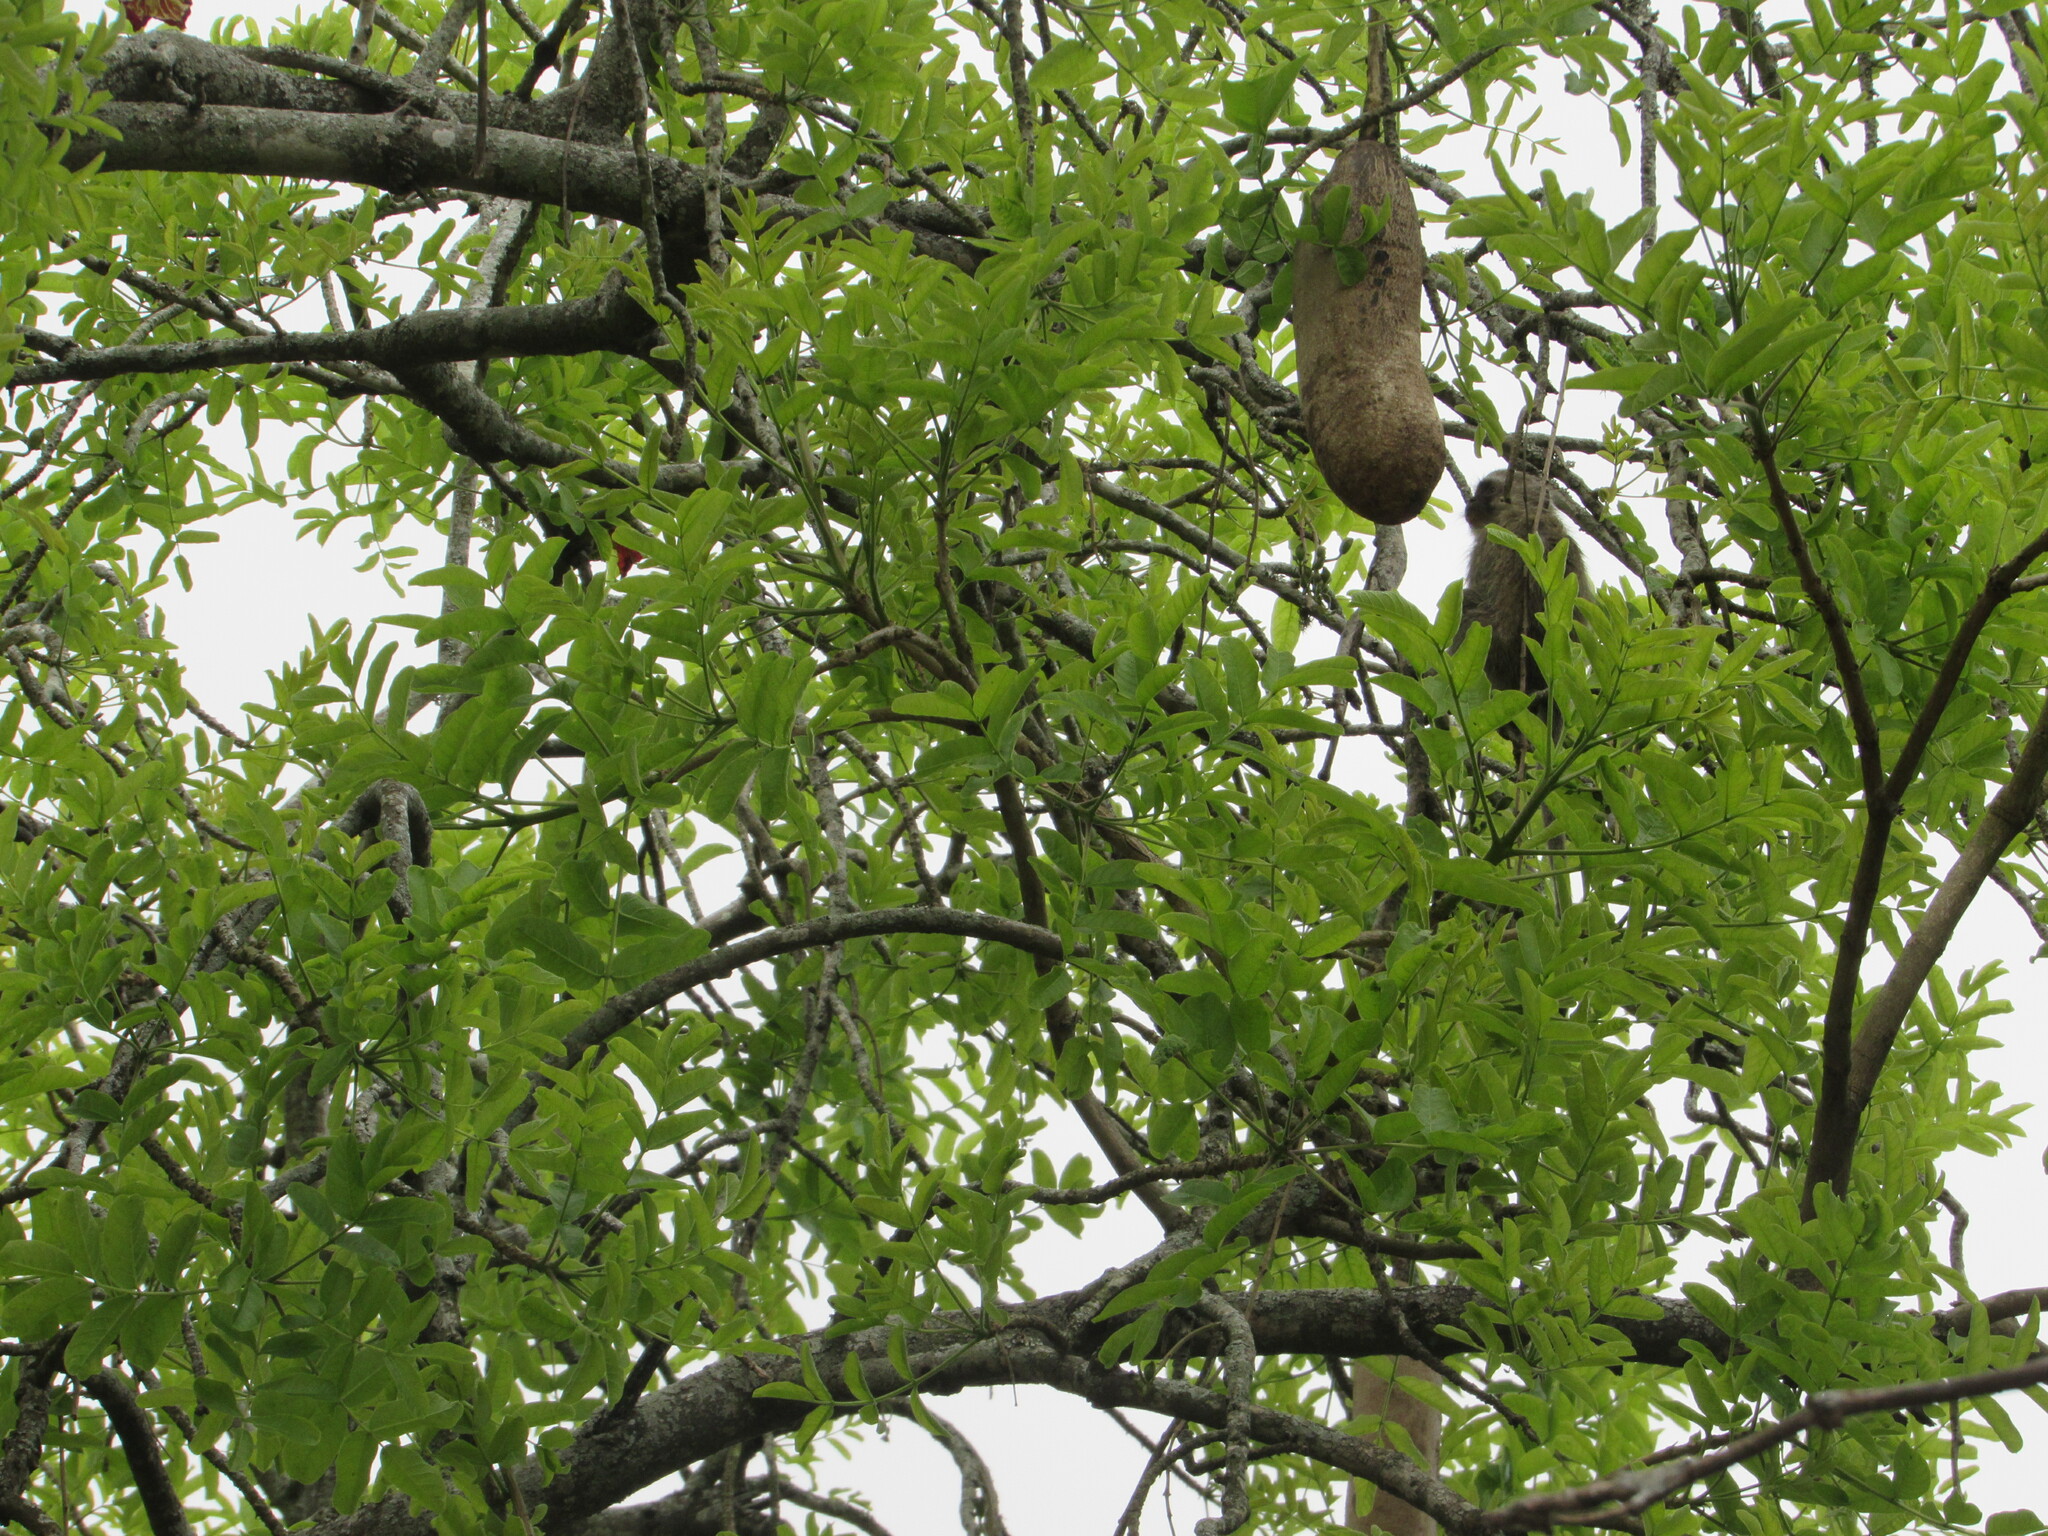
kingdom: Plantae
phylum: Tracheophyta
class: Magnoliopsida
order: Lamiales
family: Bignoniaceae
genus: Kigelia
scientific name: Kigelia africana
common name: Sausage tree
